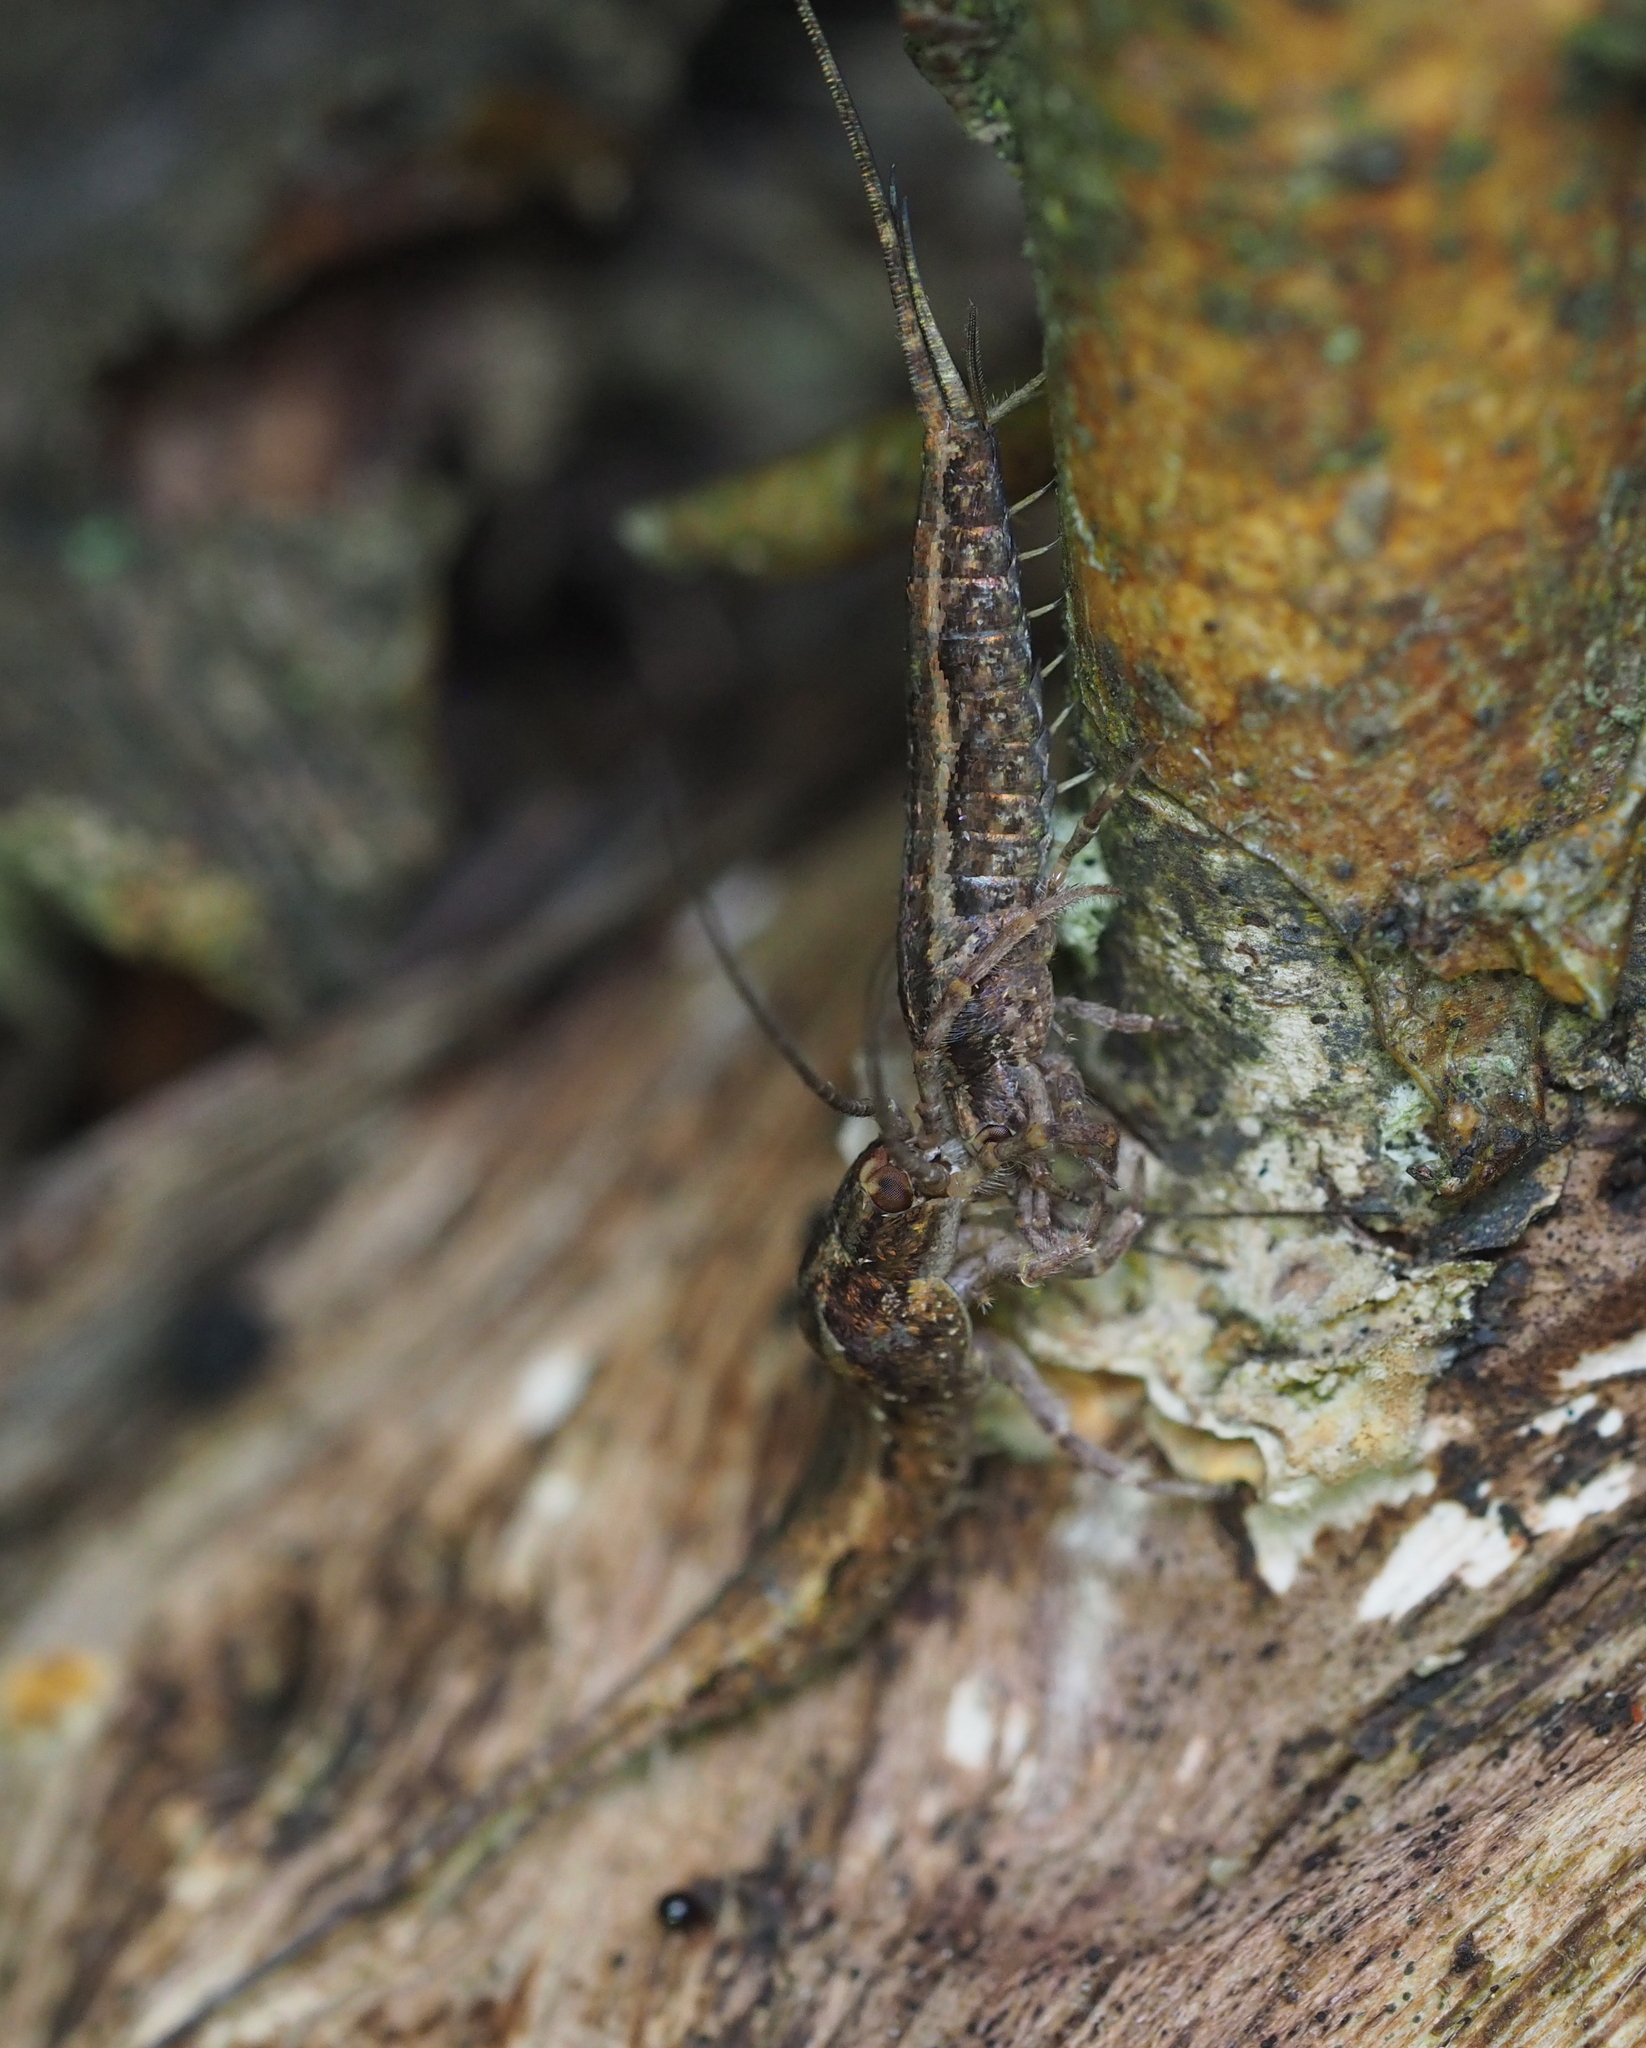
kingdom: Animalia
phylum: Arthropoda
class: Insecta
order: Archaeognatha
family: Machilidae
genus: Lepismachilis
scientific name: Lepismachilis rozsypali
